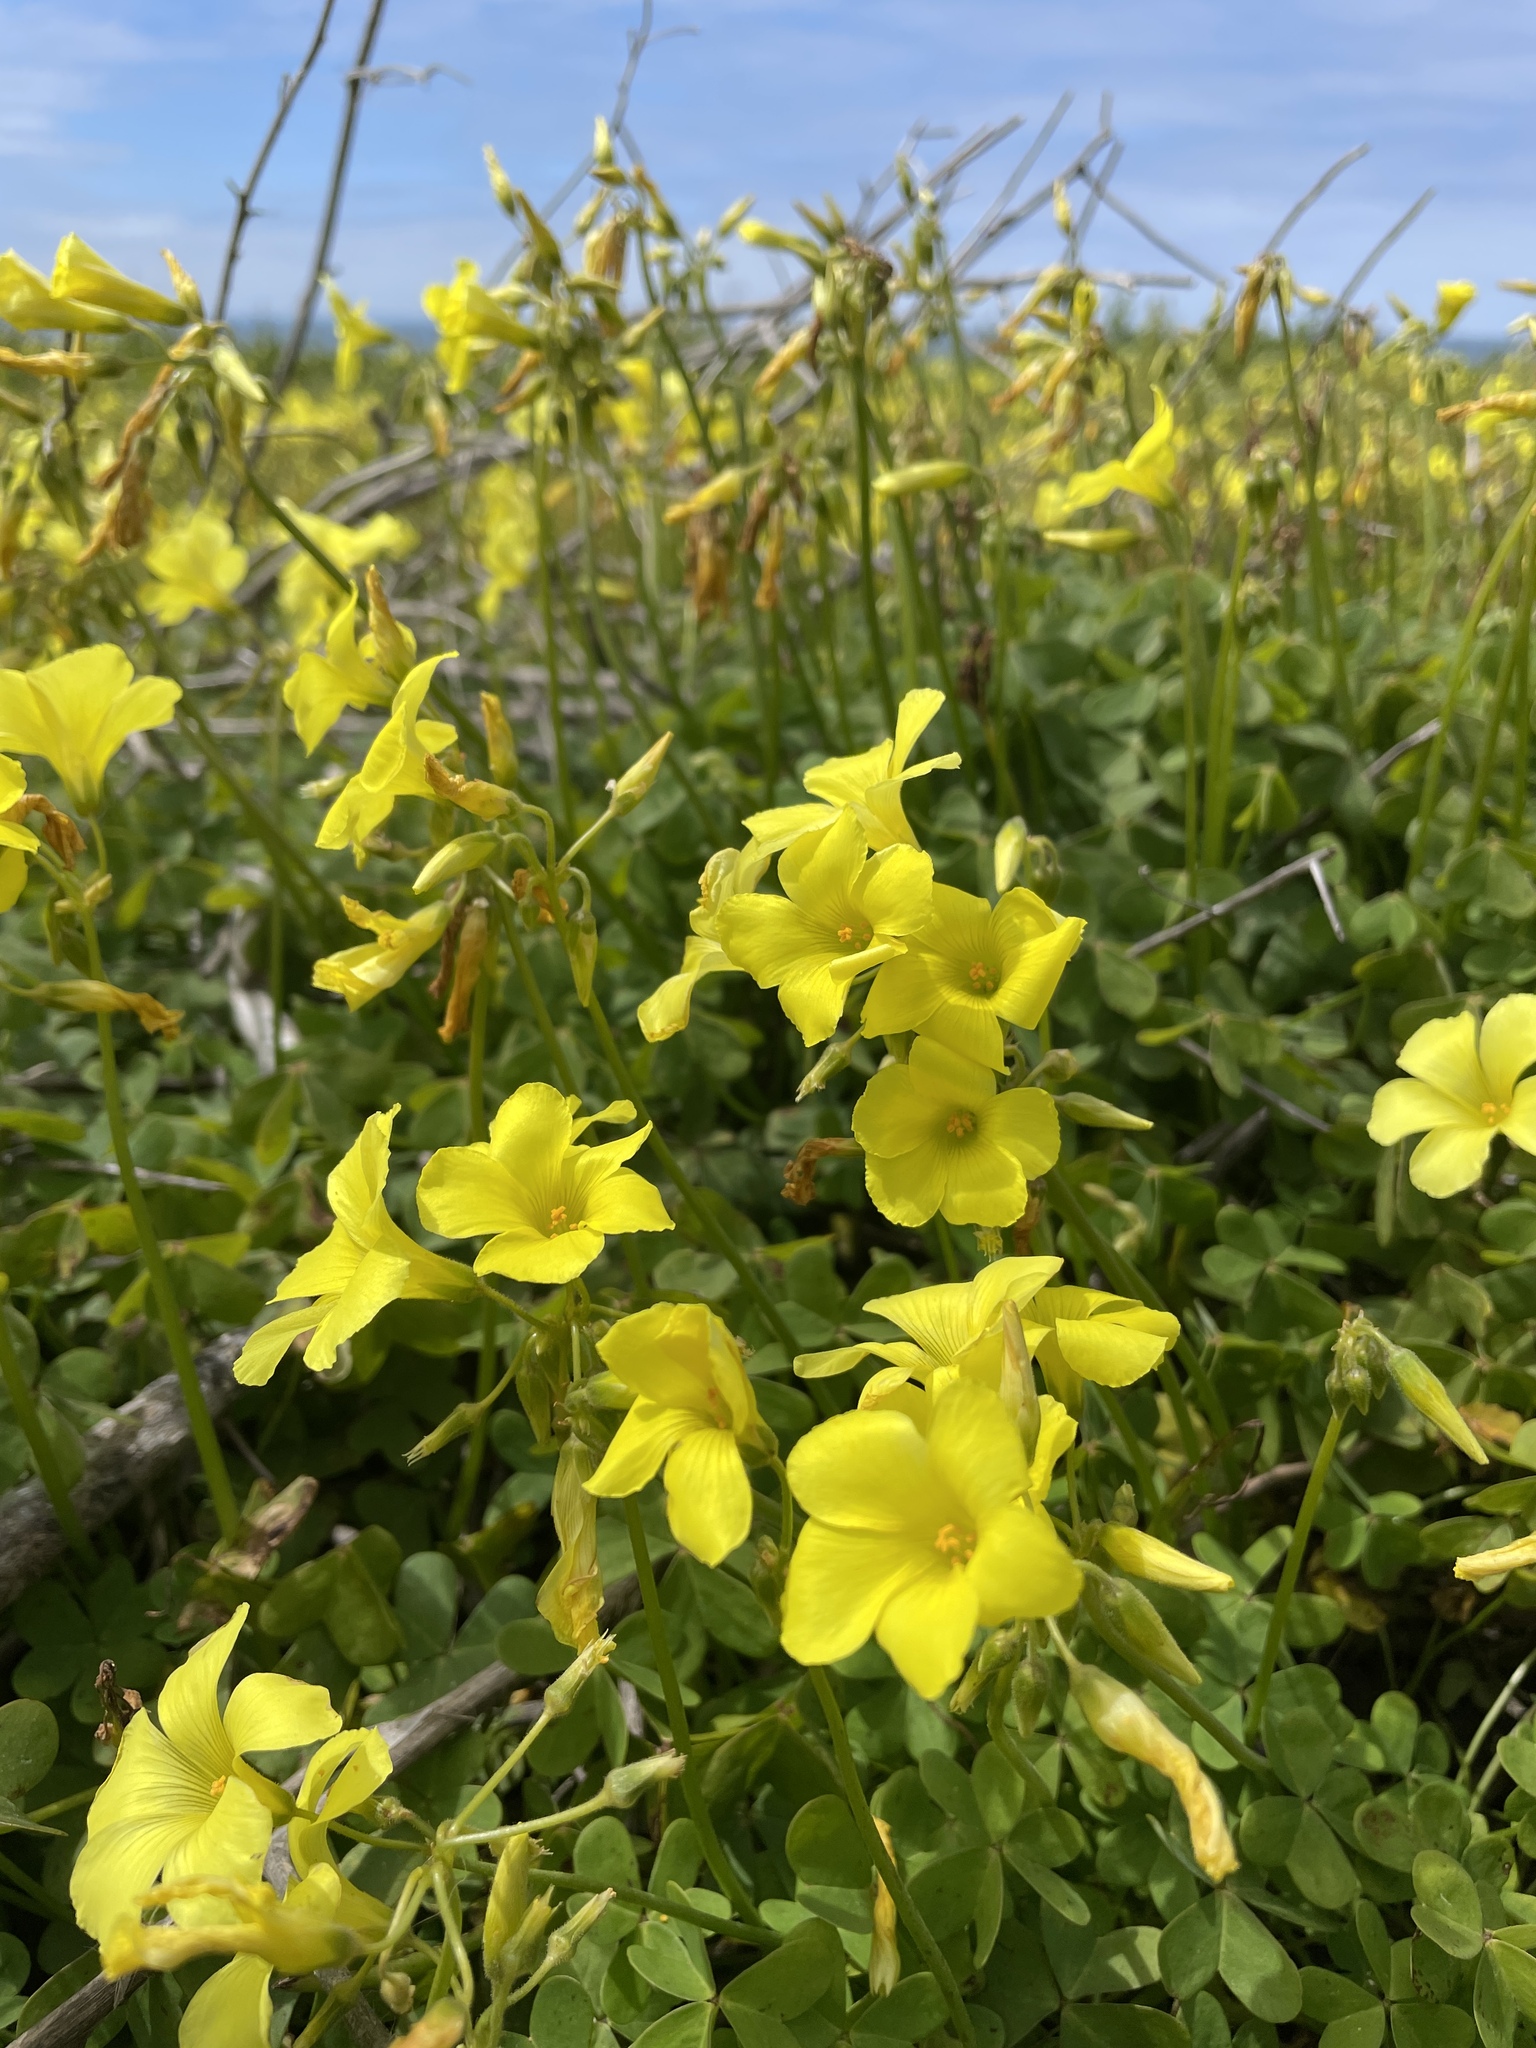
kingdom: Plantae
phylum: Tracheophyta
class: Magnoliopsida
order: Oxalidales
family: Oxalidaceae
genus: Oxalis
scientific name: Oxalis pes-caprae
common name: Bermuda-buttercup
